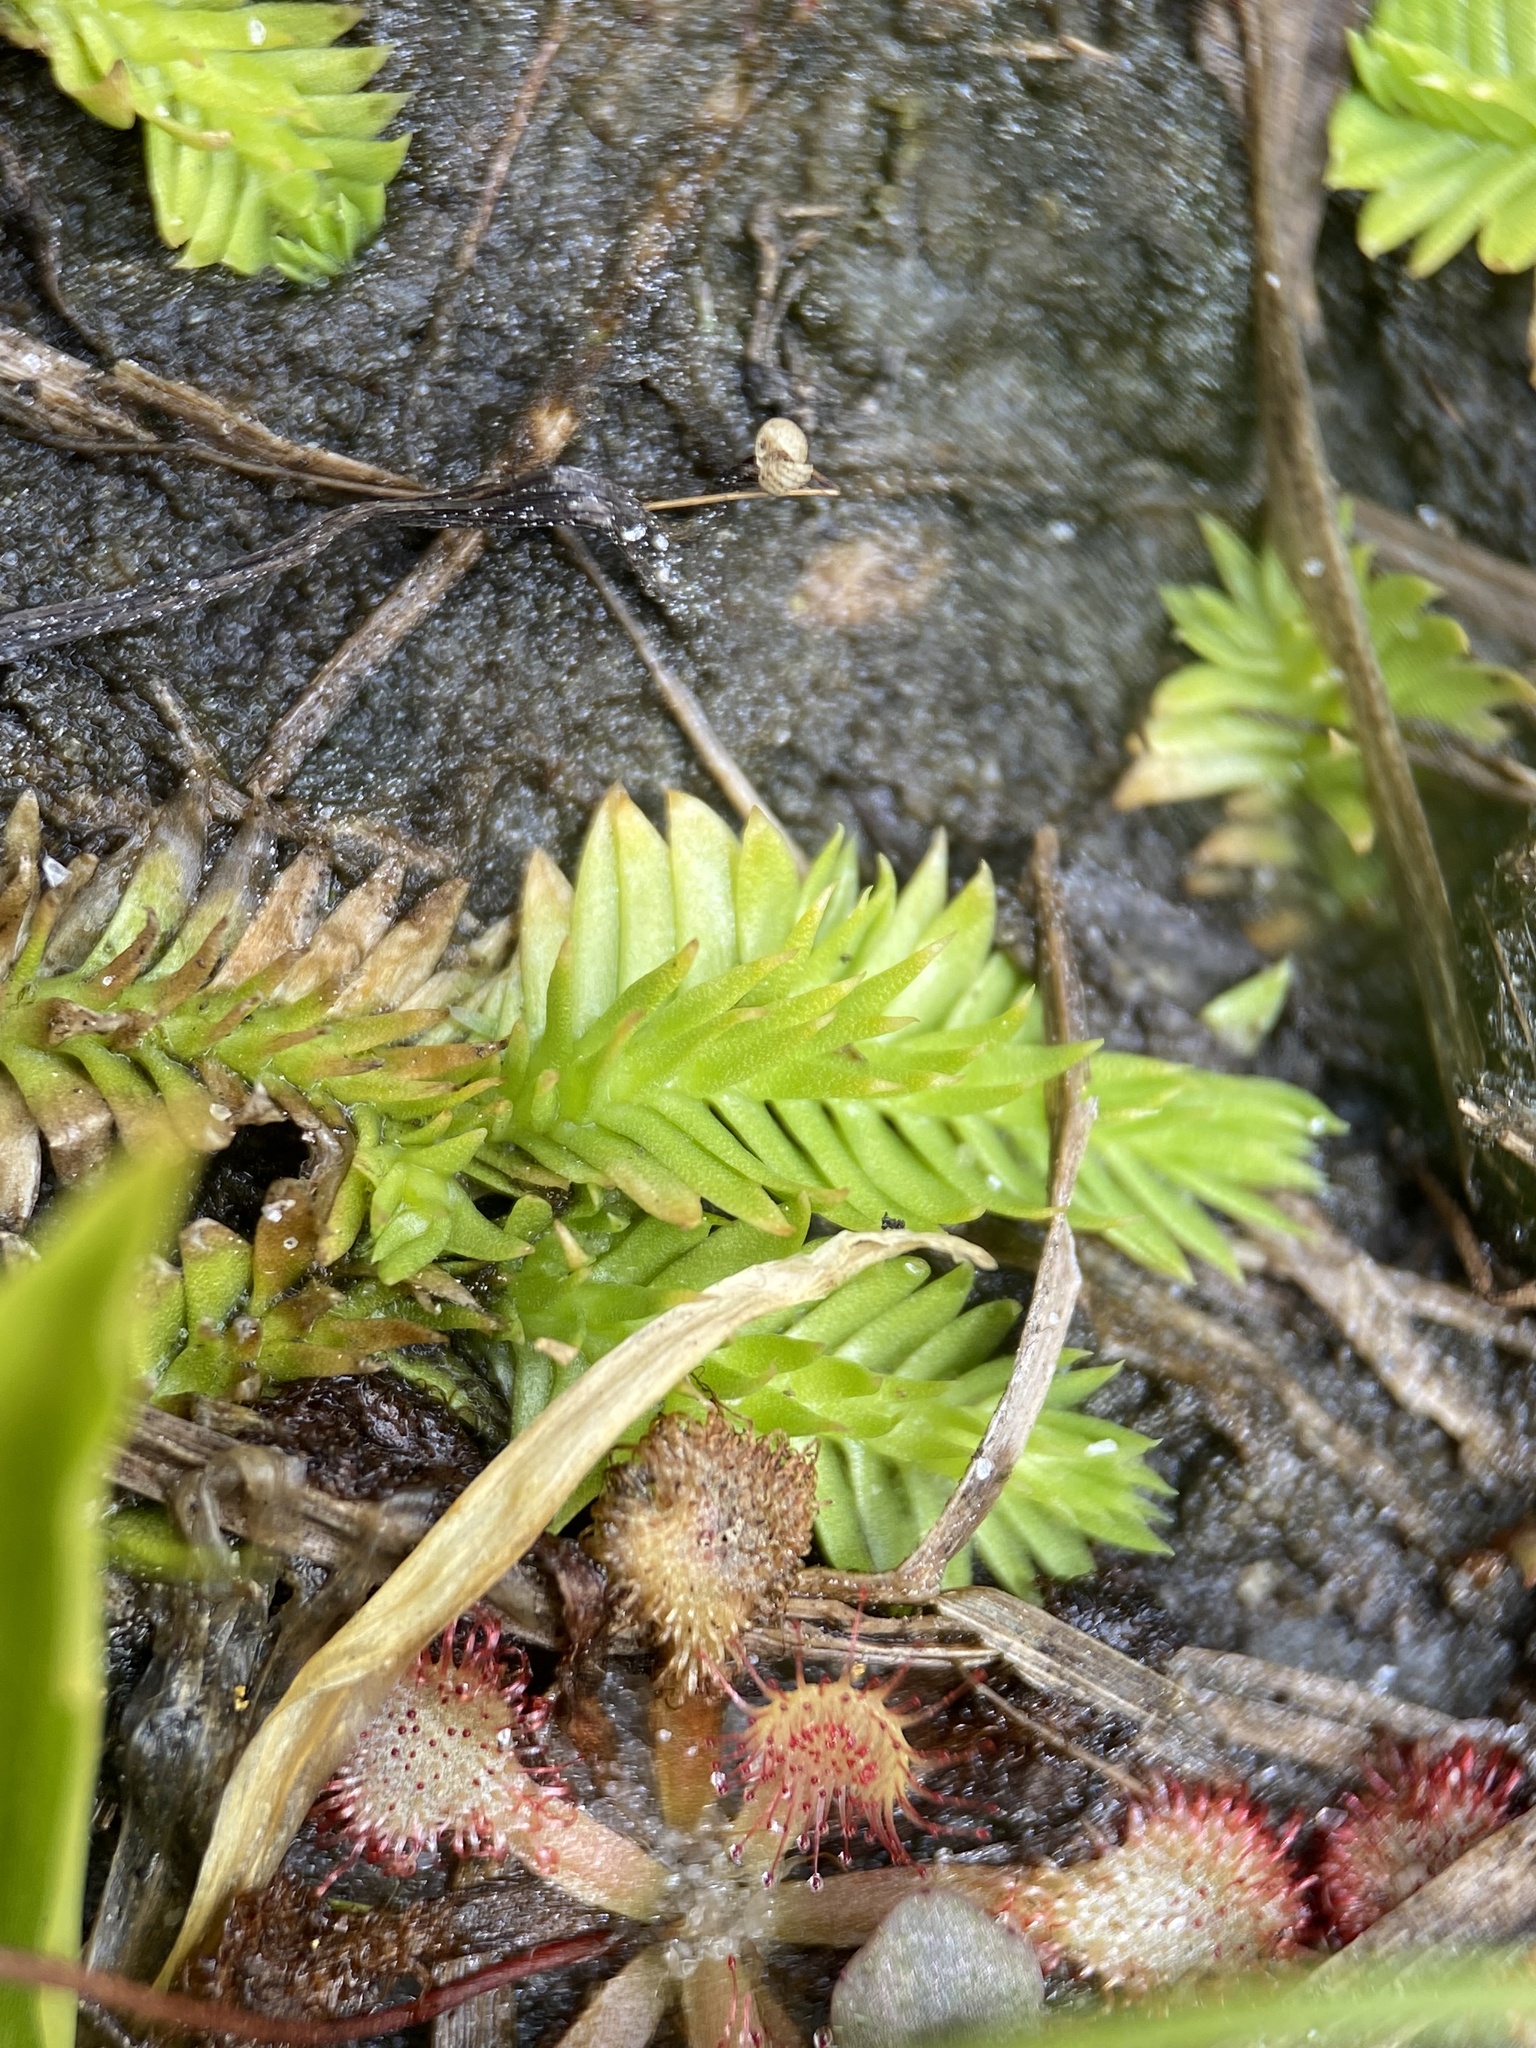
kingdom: Plantae
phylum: Tracheophyta
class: Lycopodiopsida
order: Lycopodiales
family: Lycopodiaceae
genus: Pseudolycopodiella
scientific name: Pseudolycopodiella caroliniana
